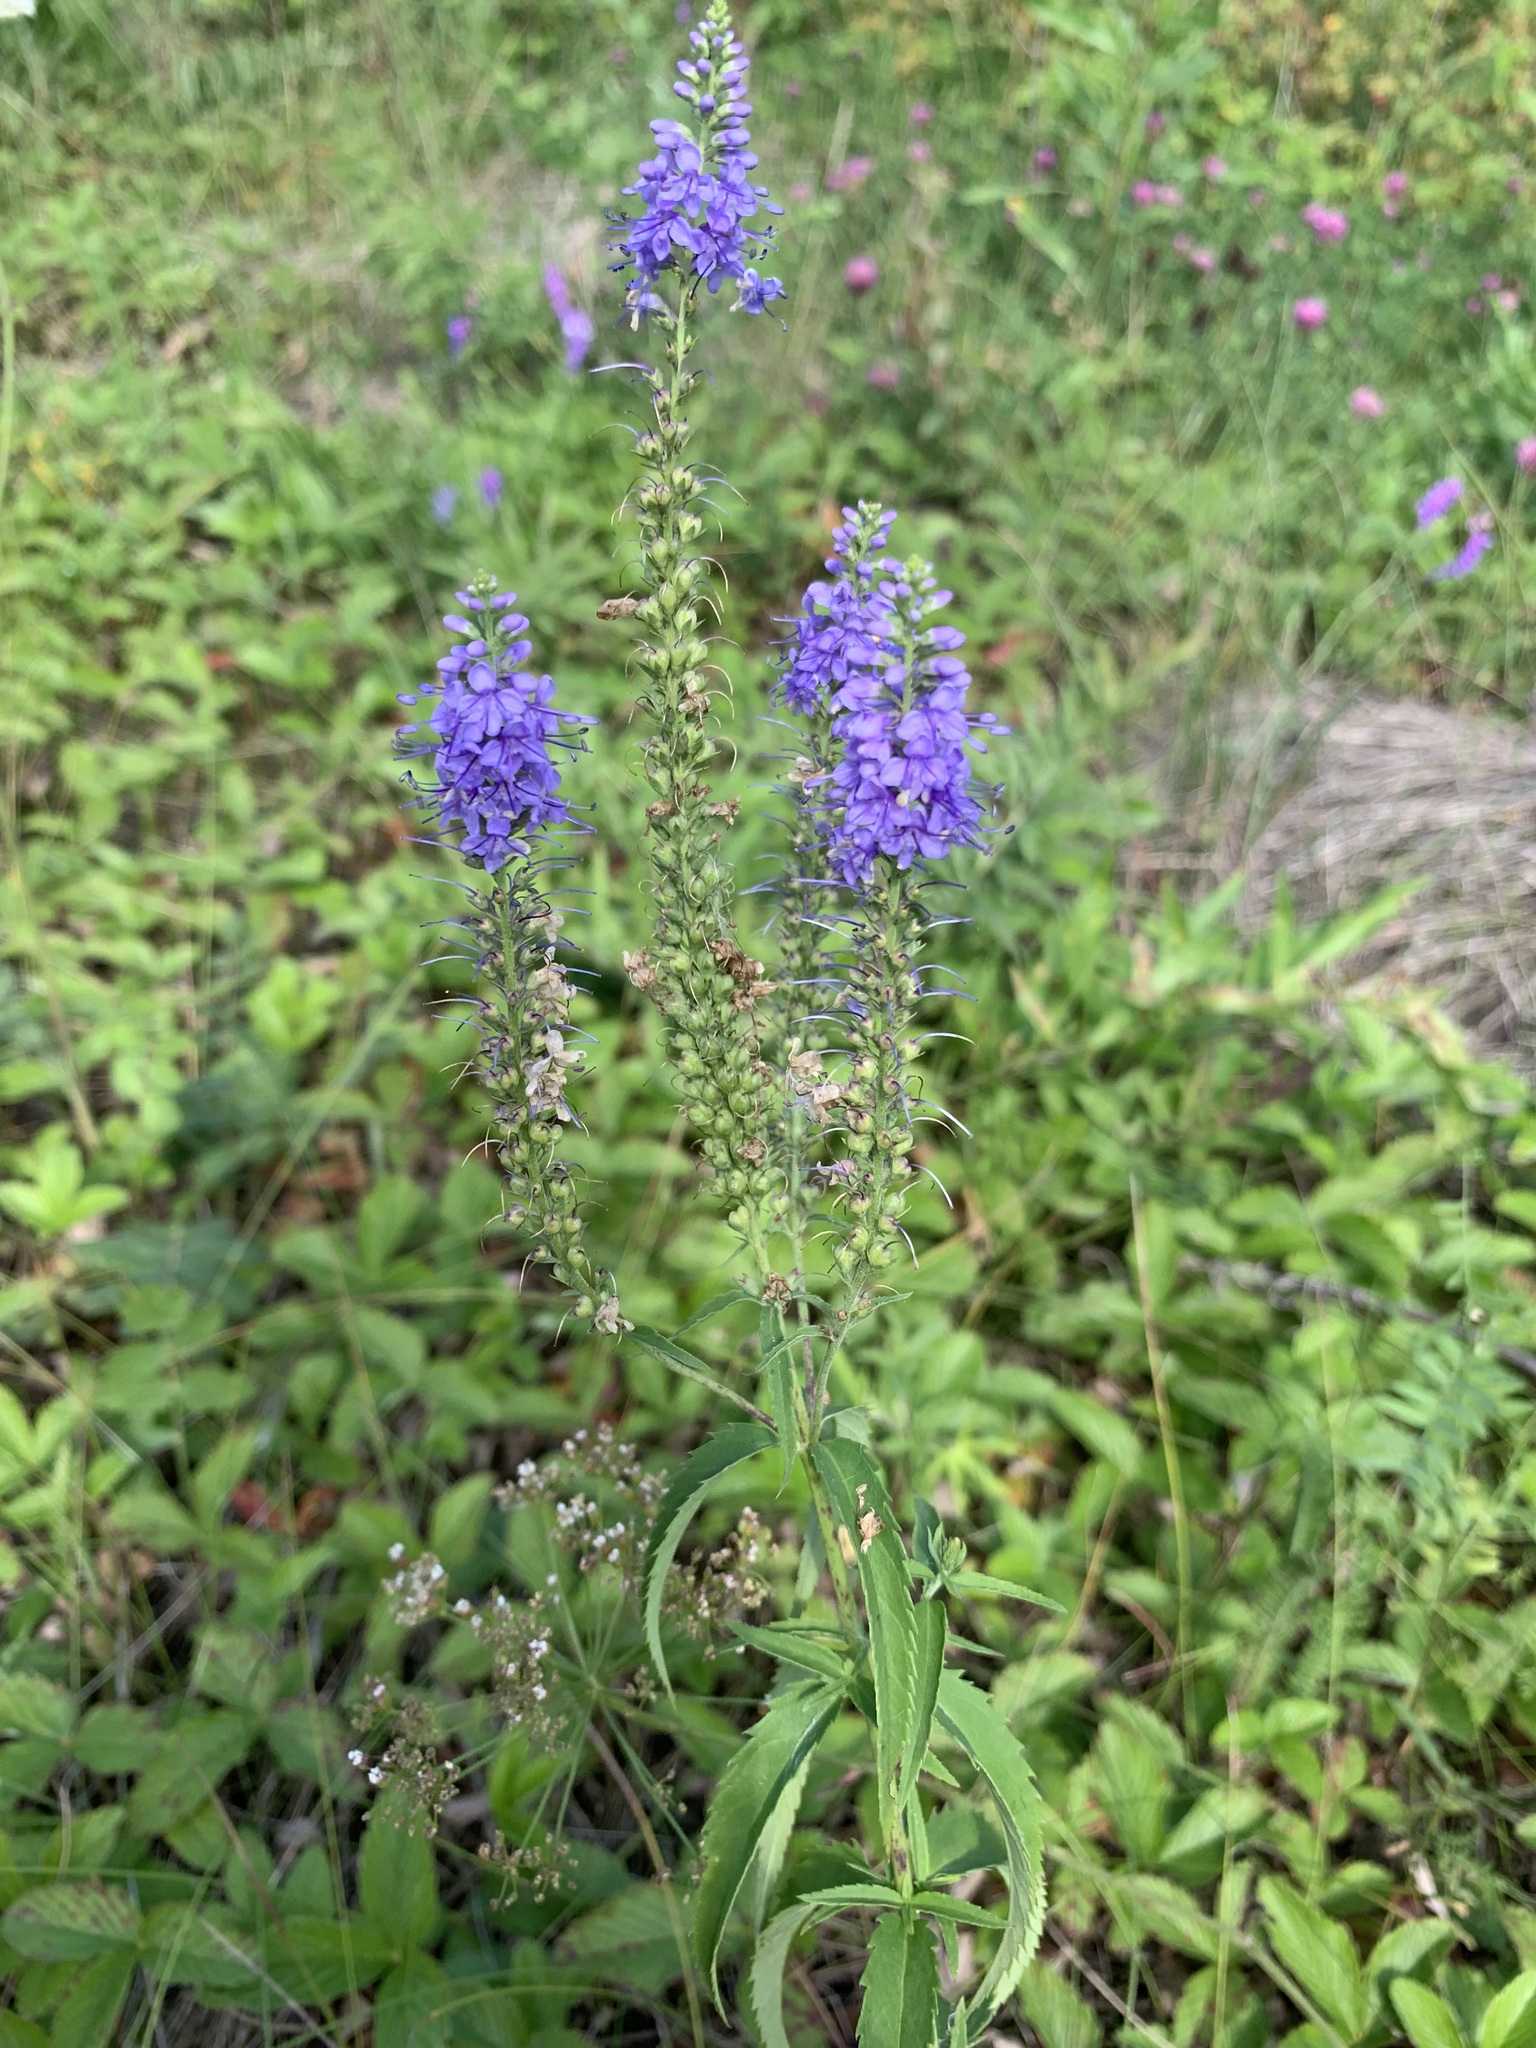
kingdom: Plantae
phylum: Tracheophyta
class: Magnoliopsida
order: Lamiales
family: Plantaginaceae
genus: Veronica
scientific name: Veronica longifolia
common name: Garden speedwell
